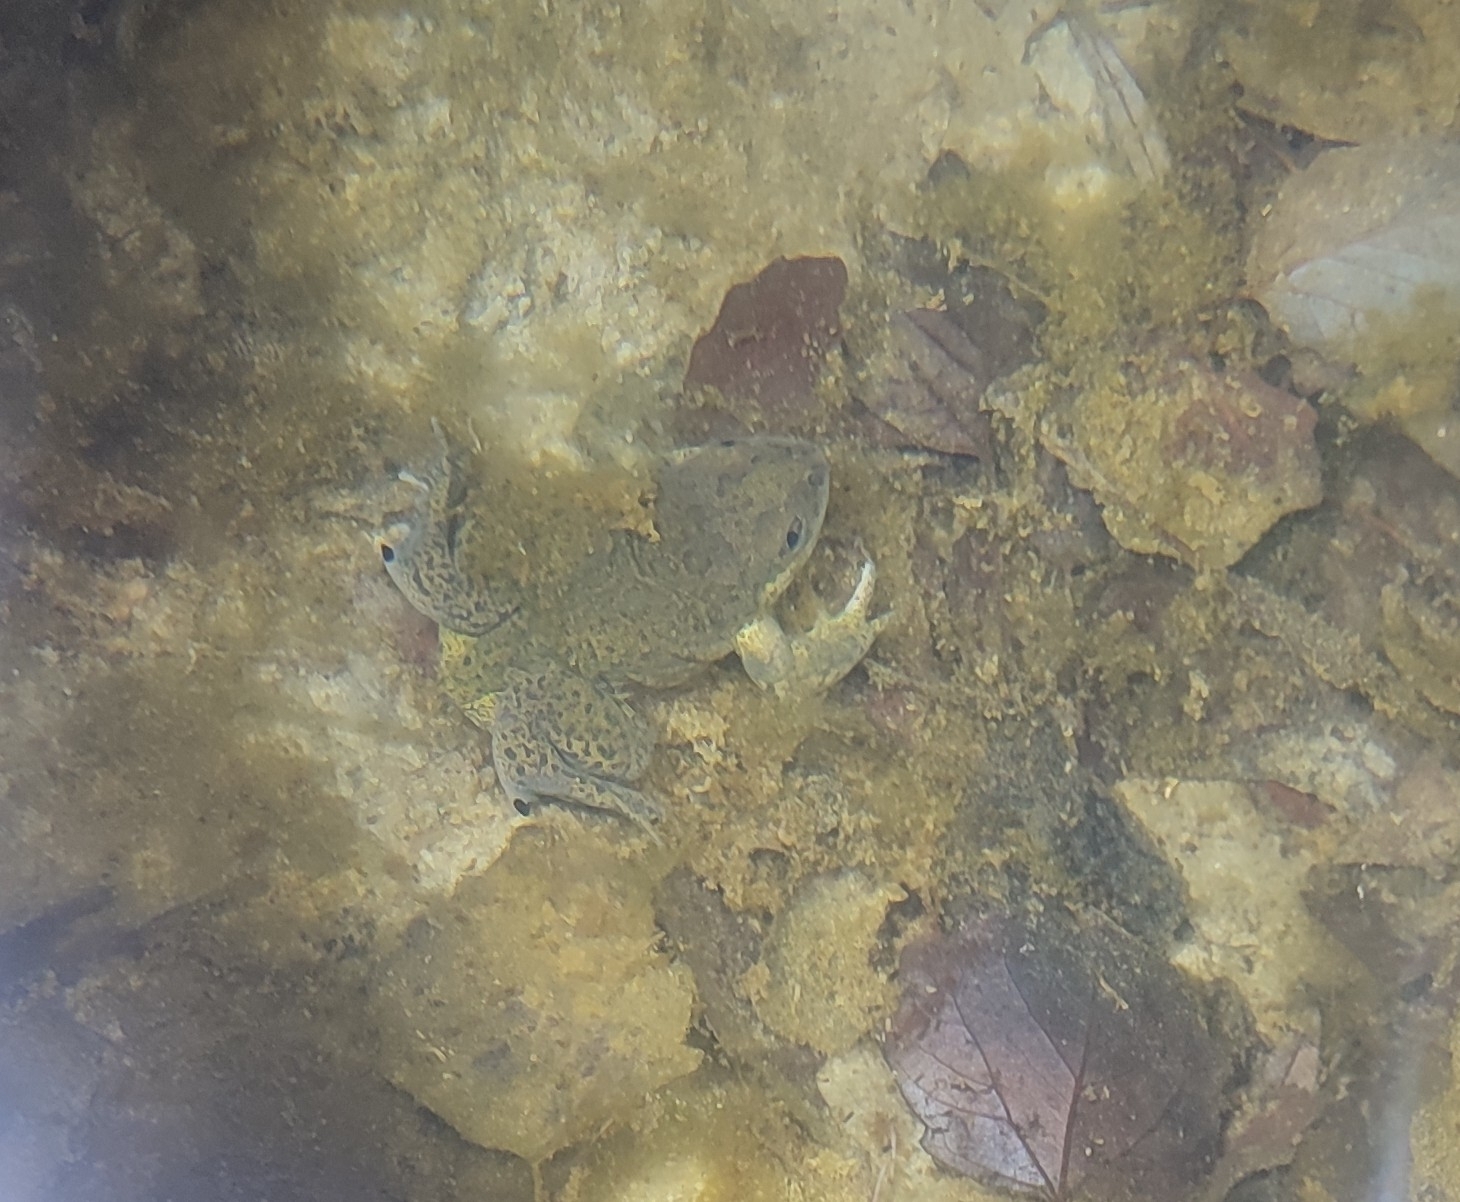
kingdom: Animalia
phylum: Chordata
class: Amphibia
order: Anura
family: Pelobatidae
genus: Pelobates
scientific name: Pelobates cultripes
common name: Western spadefoot
